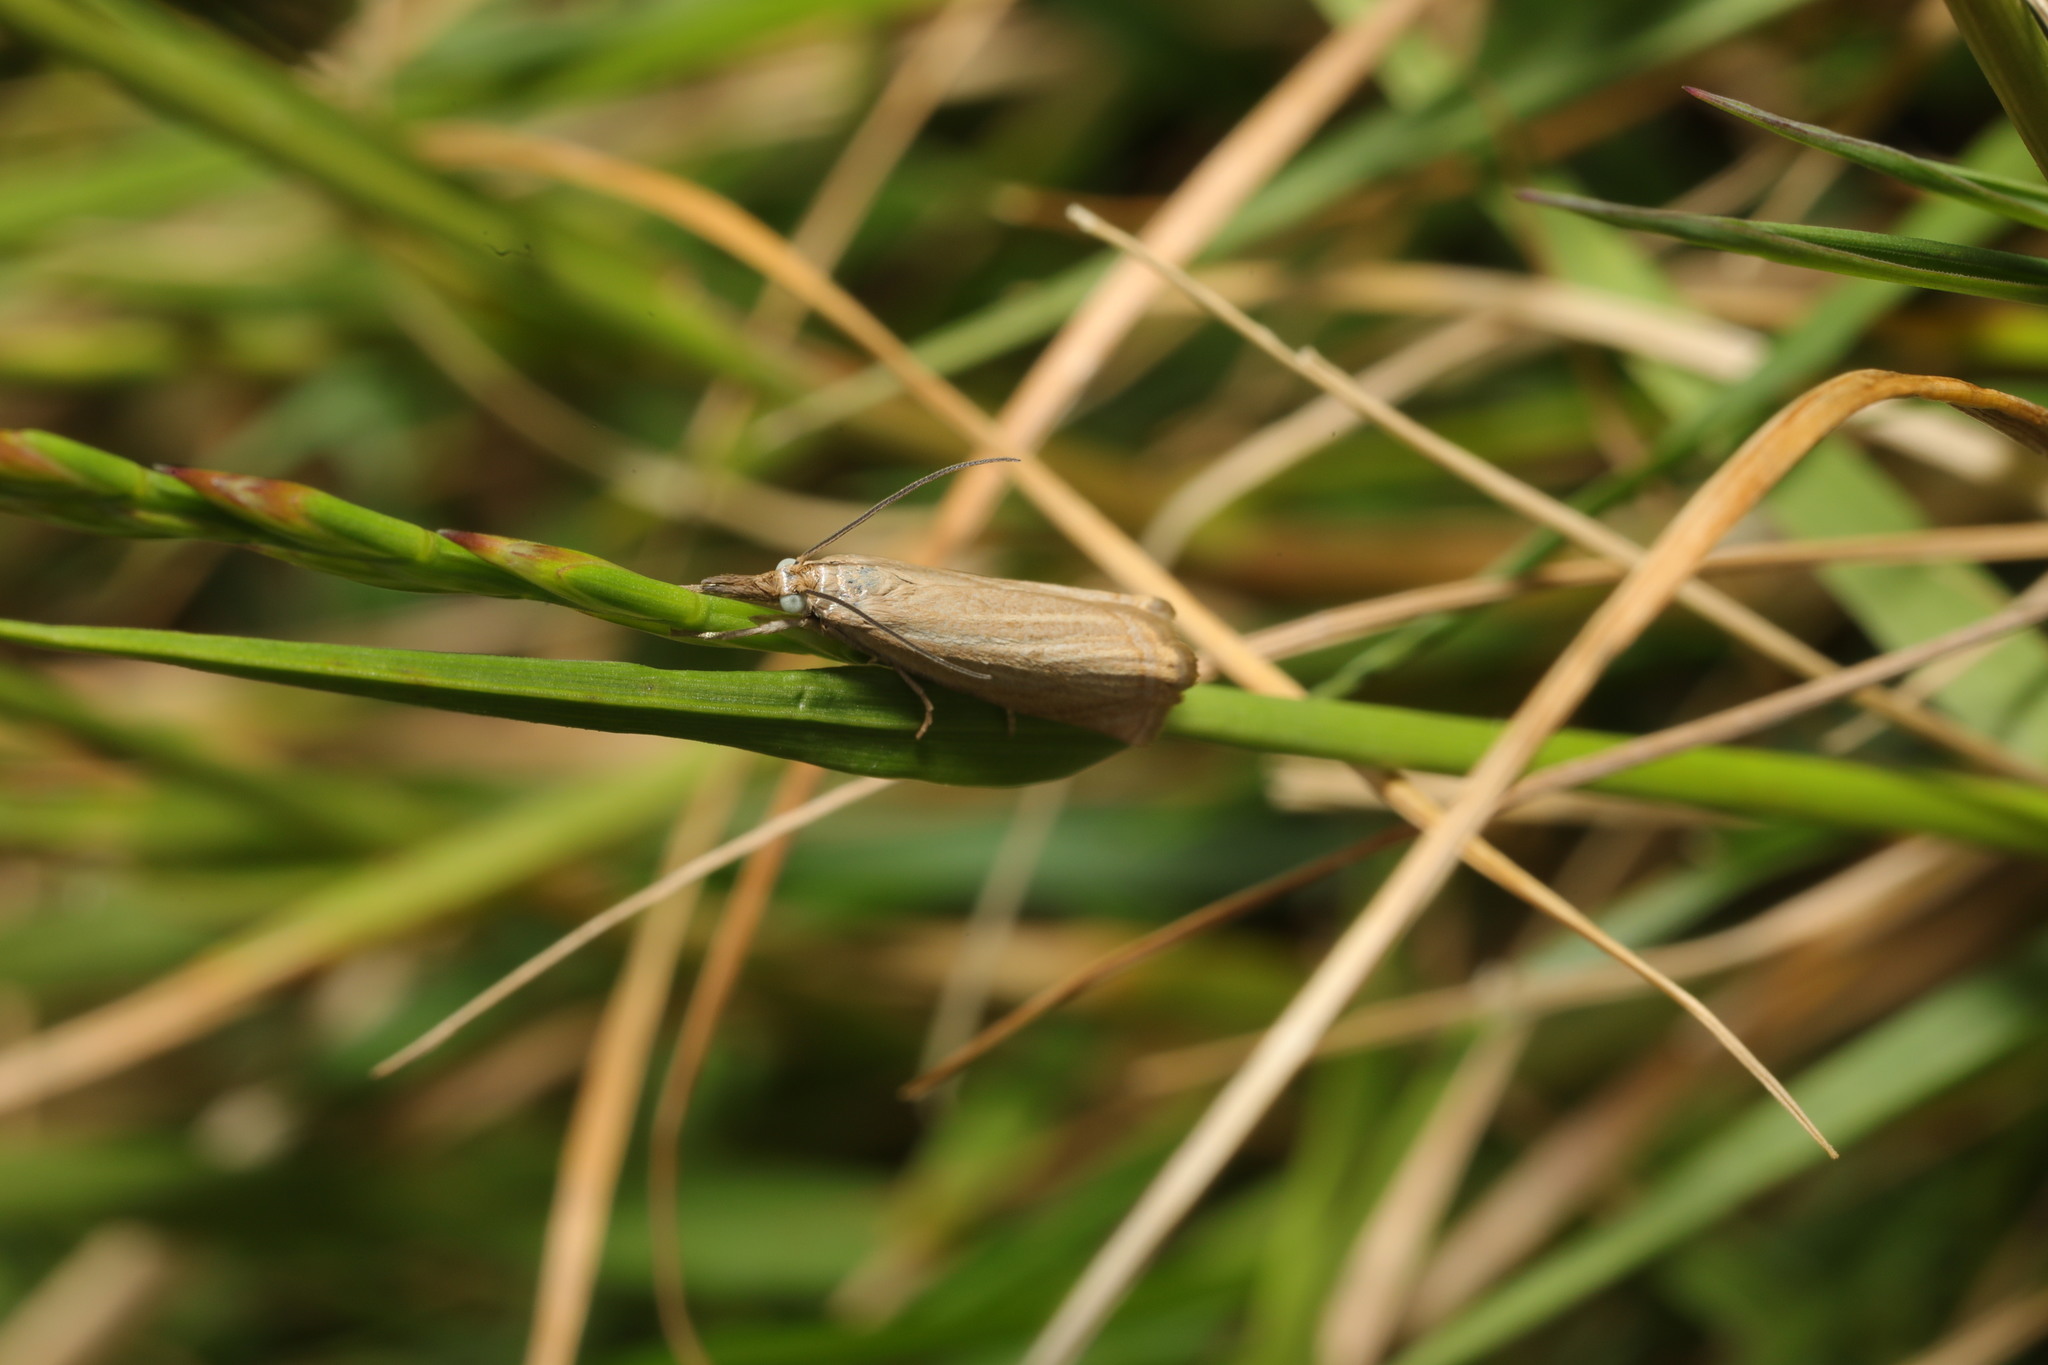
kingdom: Animalia
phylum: Arthropoda
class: Insecta
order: Lepidoptera
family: Crambidae
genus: Chrysoteuchia
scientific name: Chrysoteuchia culmella
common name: Garden grass-veneer
